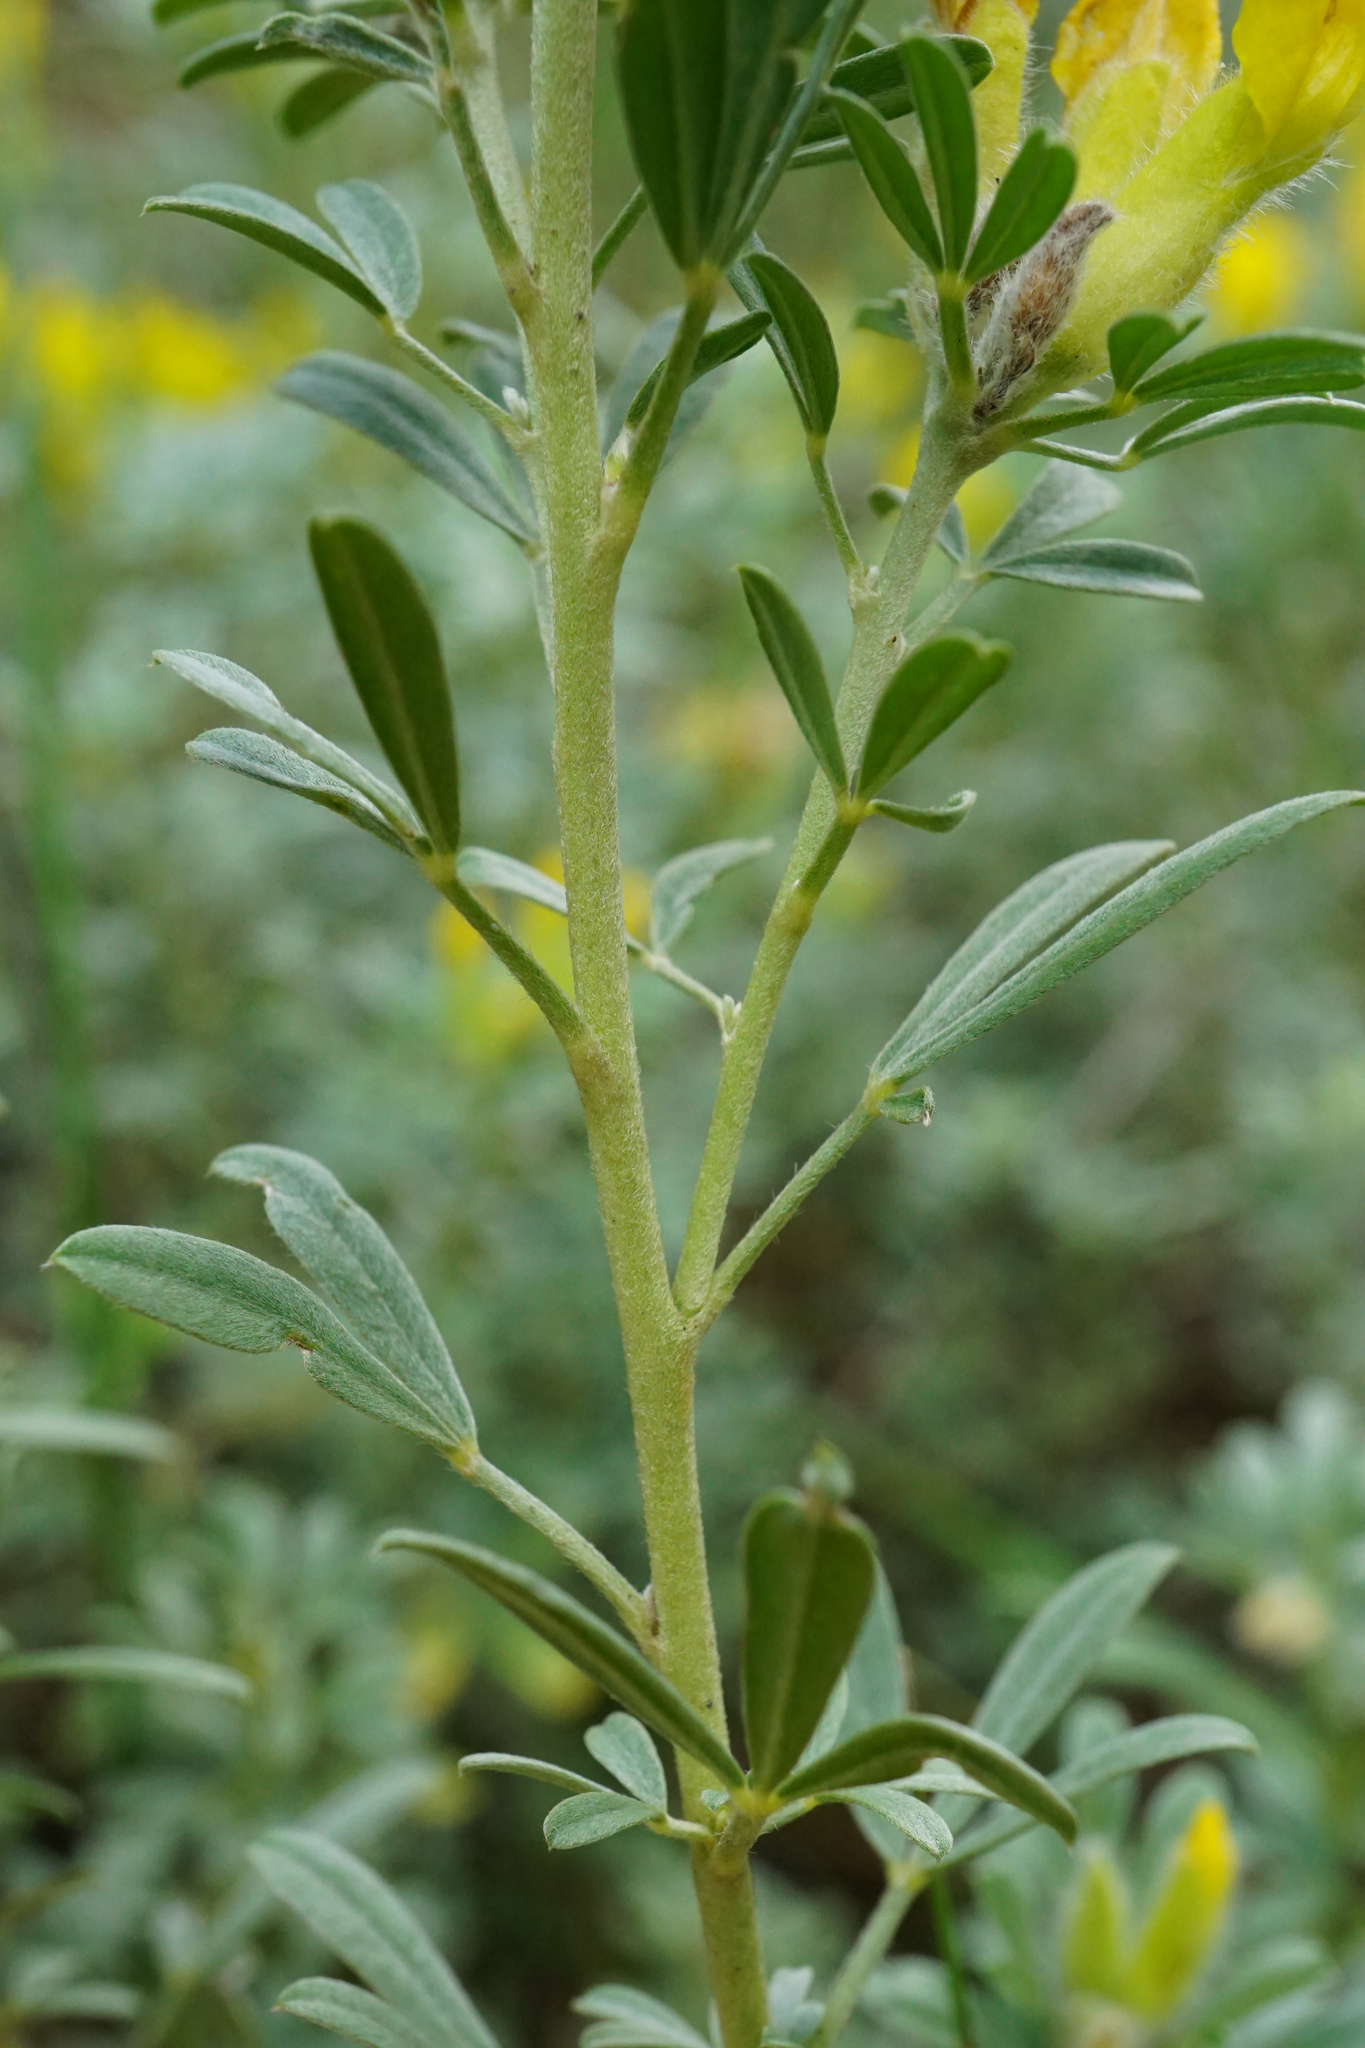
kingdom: Plantae
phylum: Tracheophyta
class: Magnoliopsida
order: Fabales
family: Fabaceae
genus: Chamaecytisus
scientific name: Chamaecytisus austriacus
